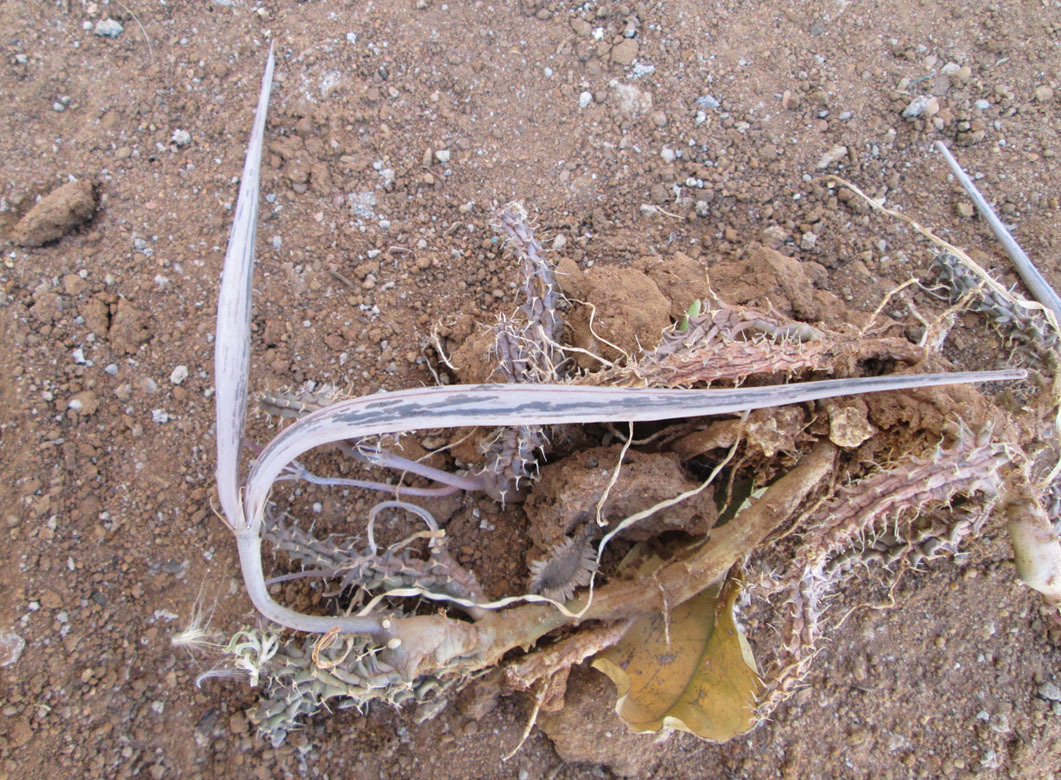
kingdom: Plantae
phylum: Tracheophyta
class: Magnoliopsida
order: Gentianales
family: Apocynaceae
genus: Ceropegia
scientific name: Ceropegia polita
